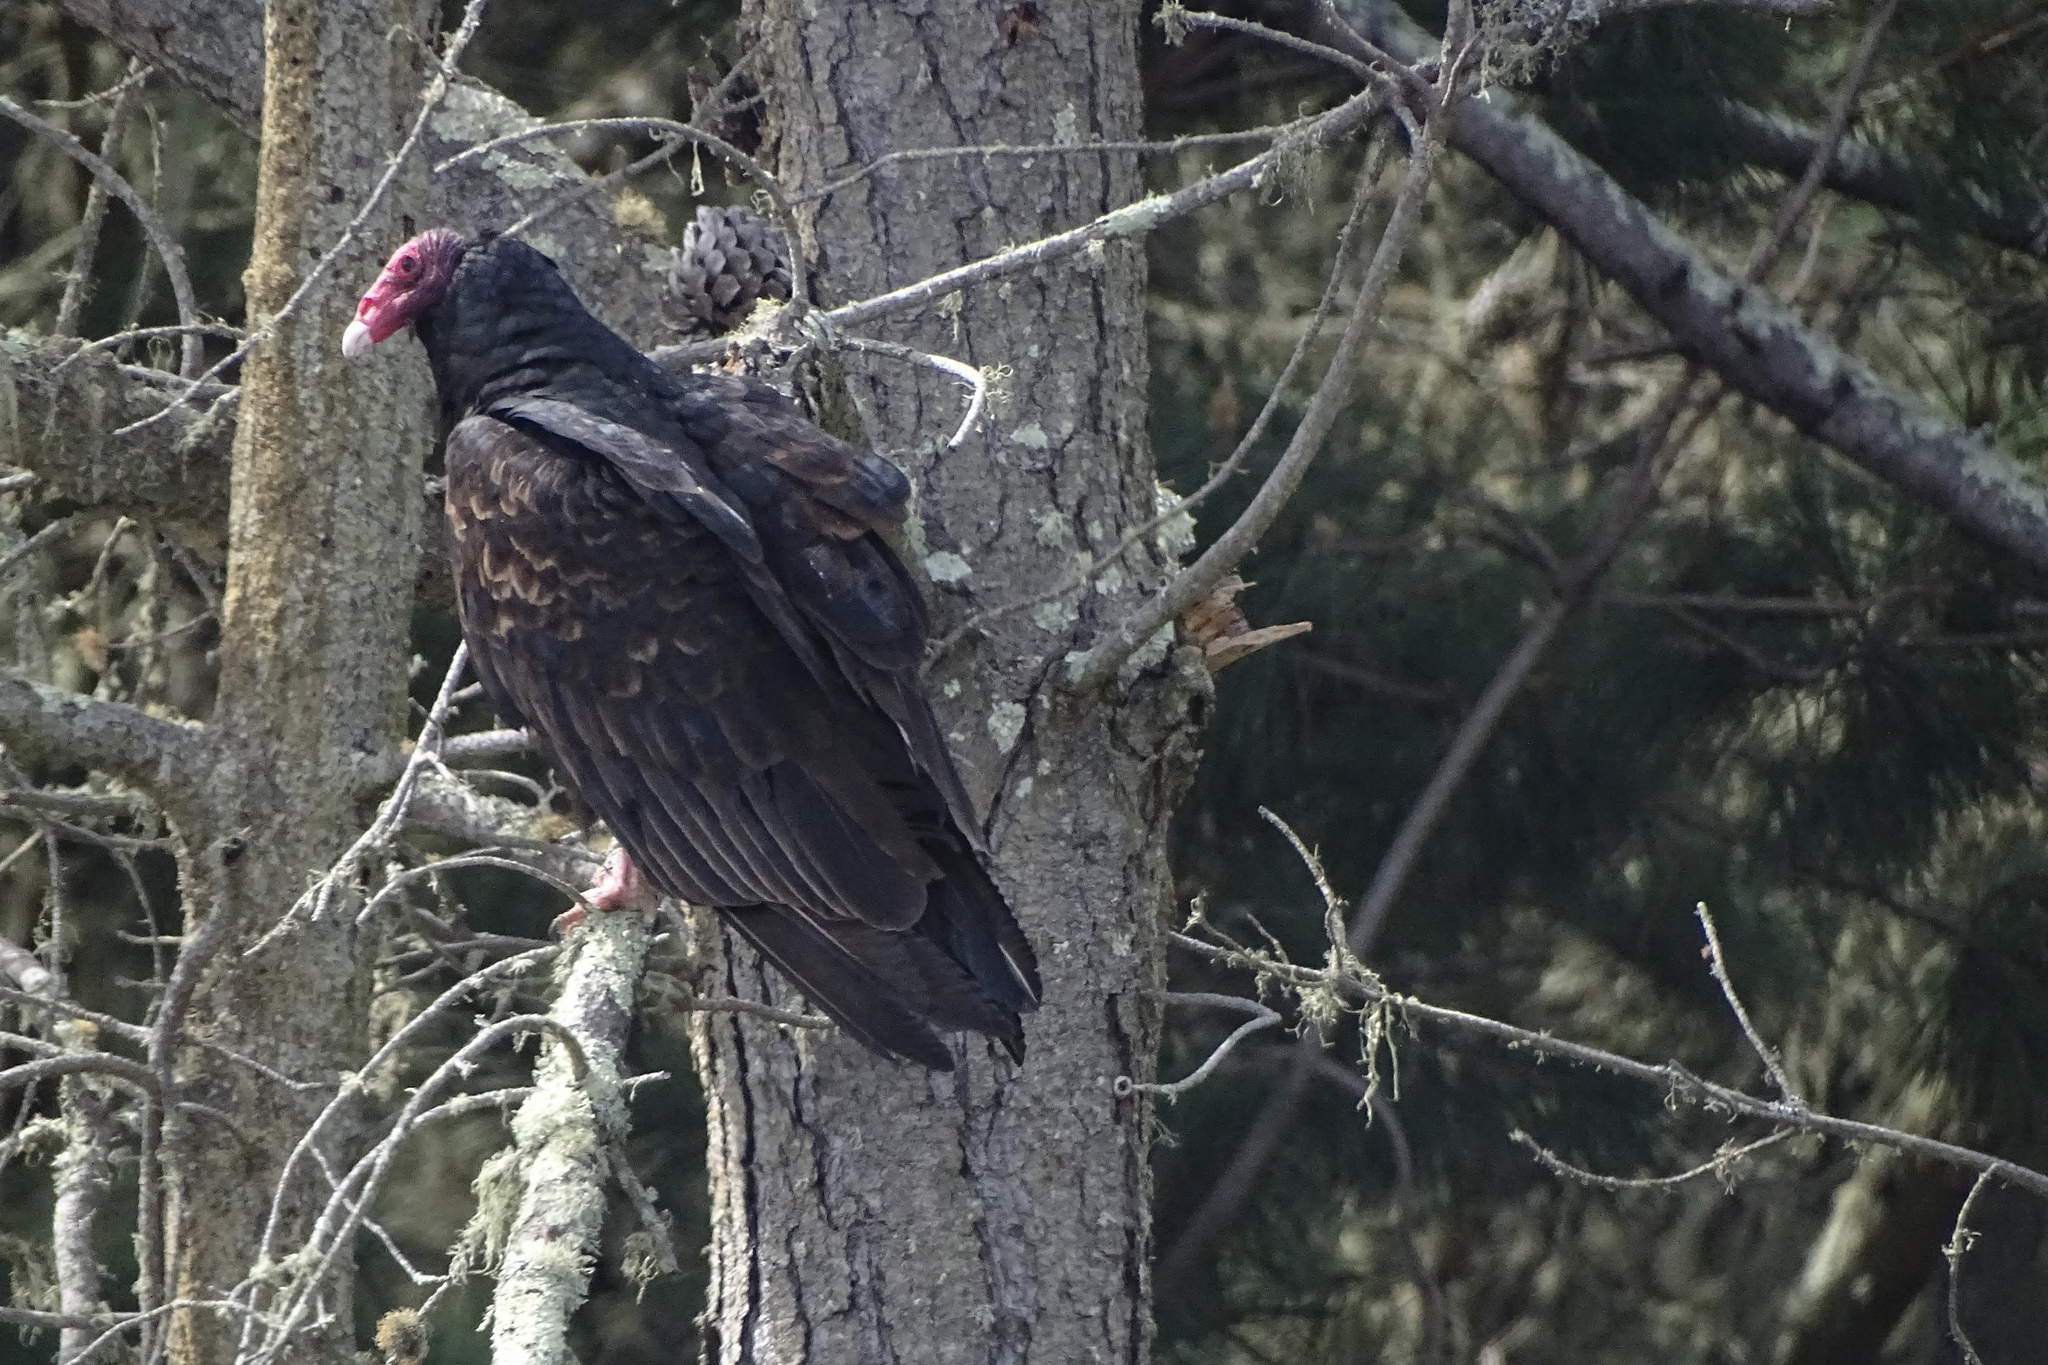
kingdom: Animalia
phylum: Chordata
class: Aves
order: Accipitriformes
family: Cathartidae
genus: Cathartes
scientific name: Cathartes aura
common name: Turkey vulture
